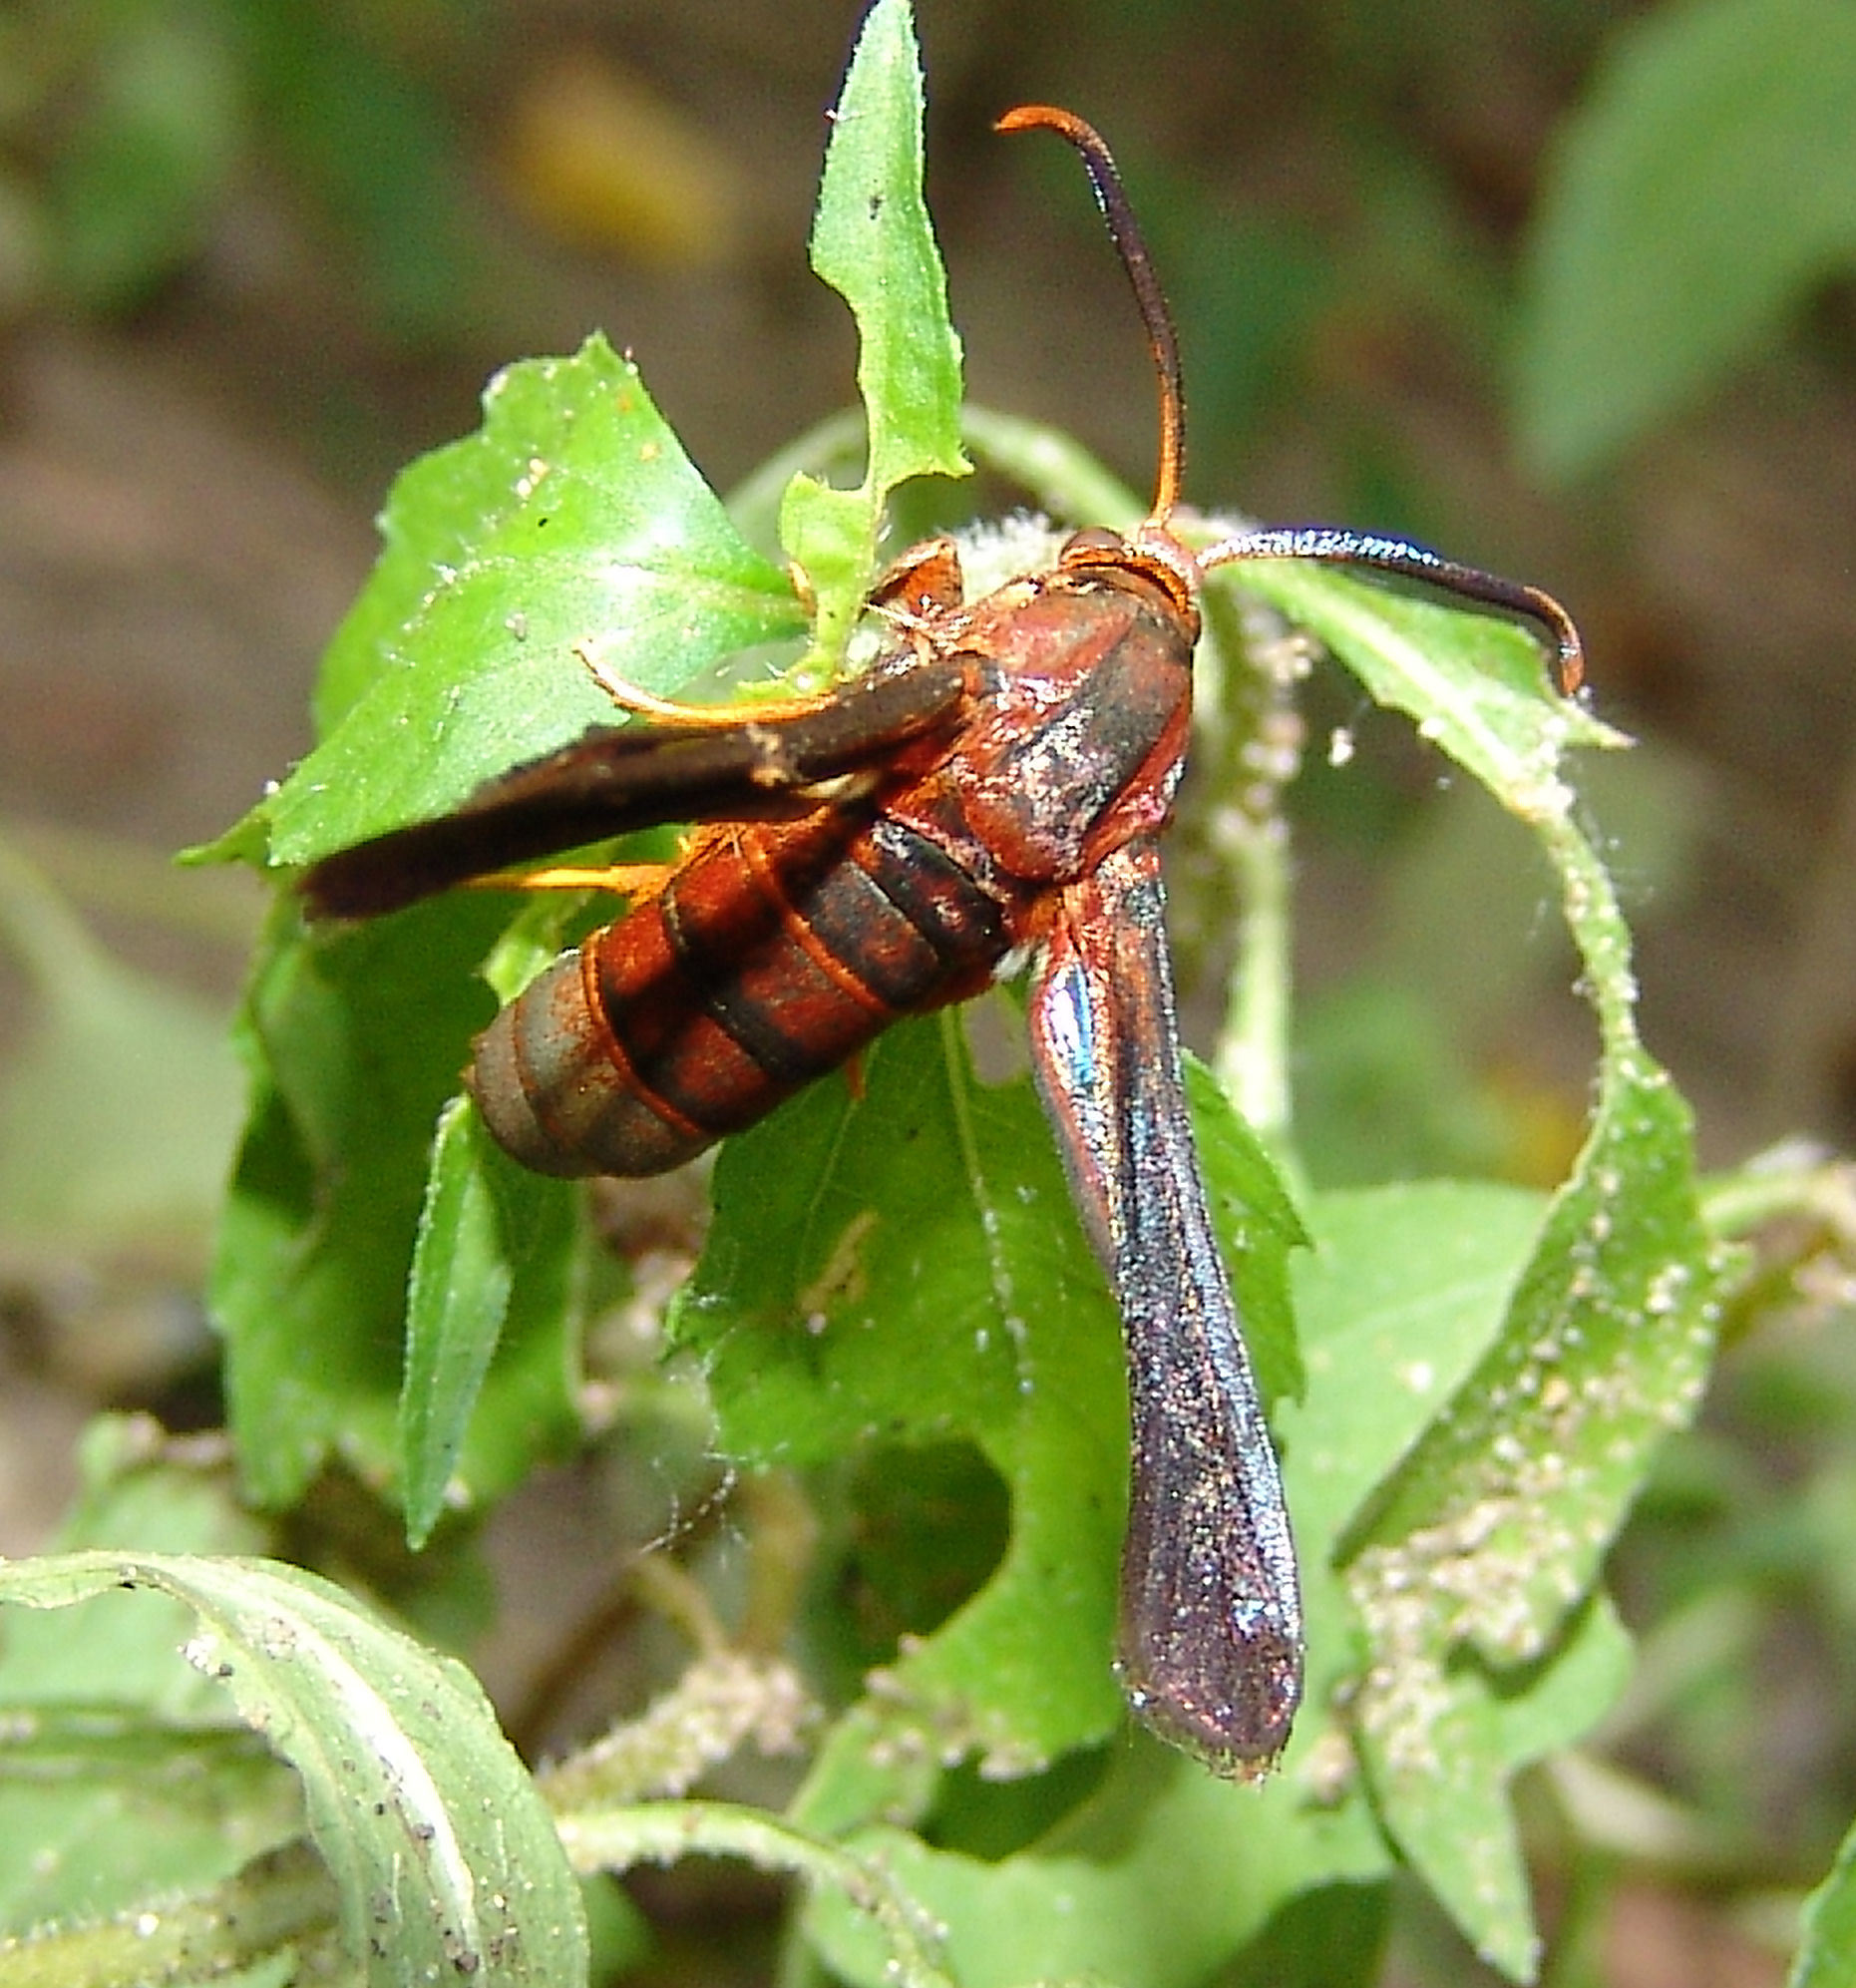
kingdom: Animalia
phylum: Arthropoda
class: Insecta
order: Lepidoptera
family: Sesiidae
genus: Vitacea
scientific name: Vitacea polistiformis
